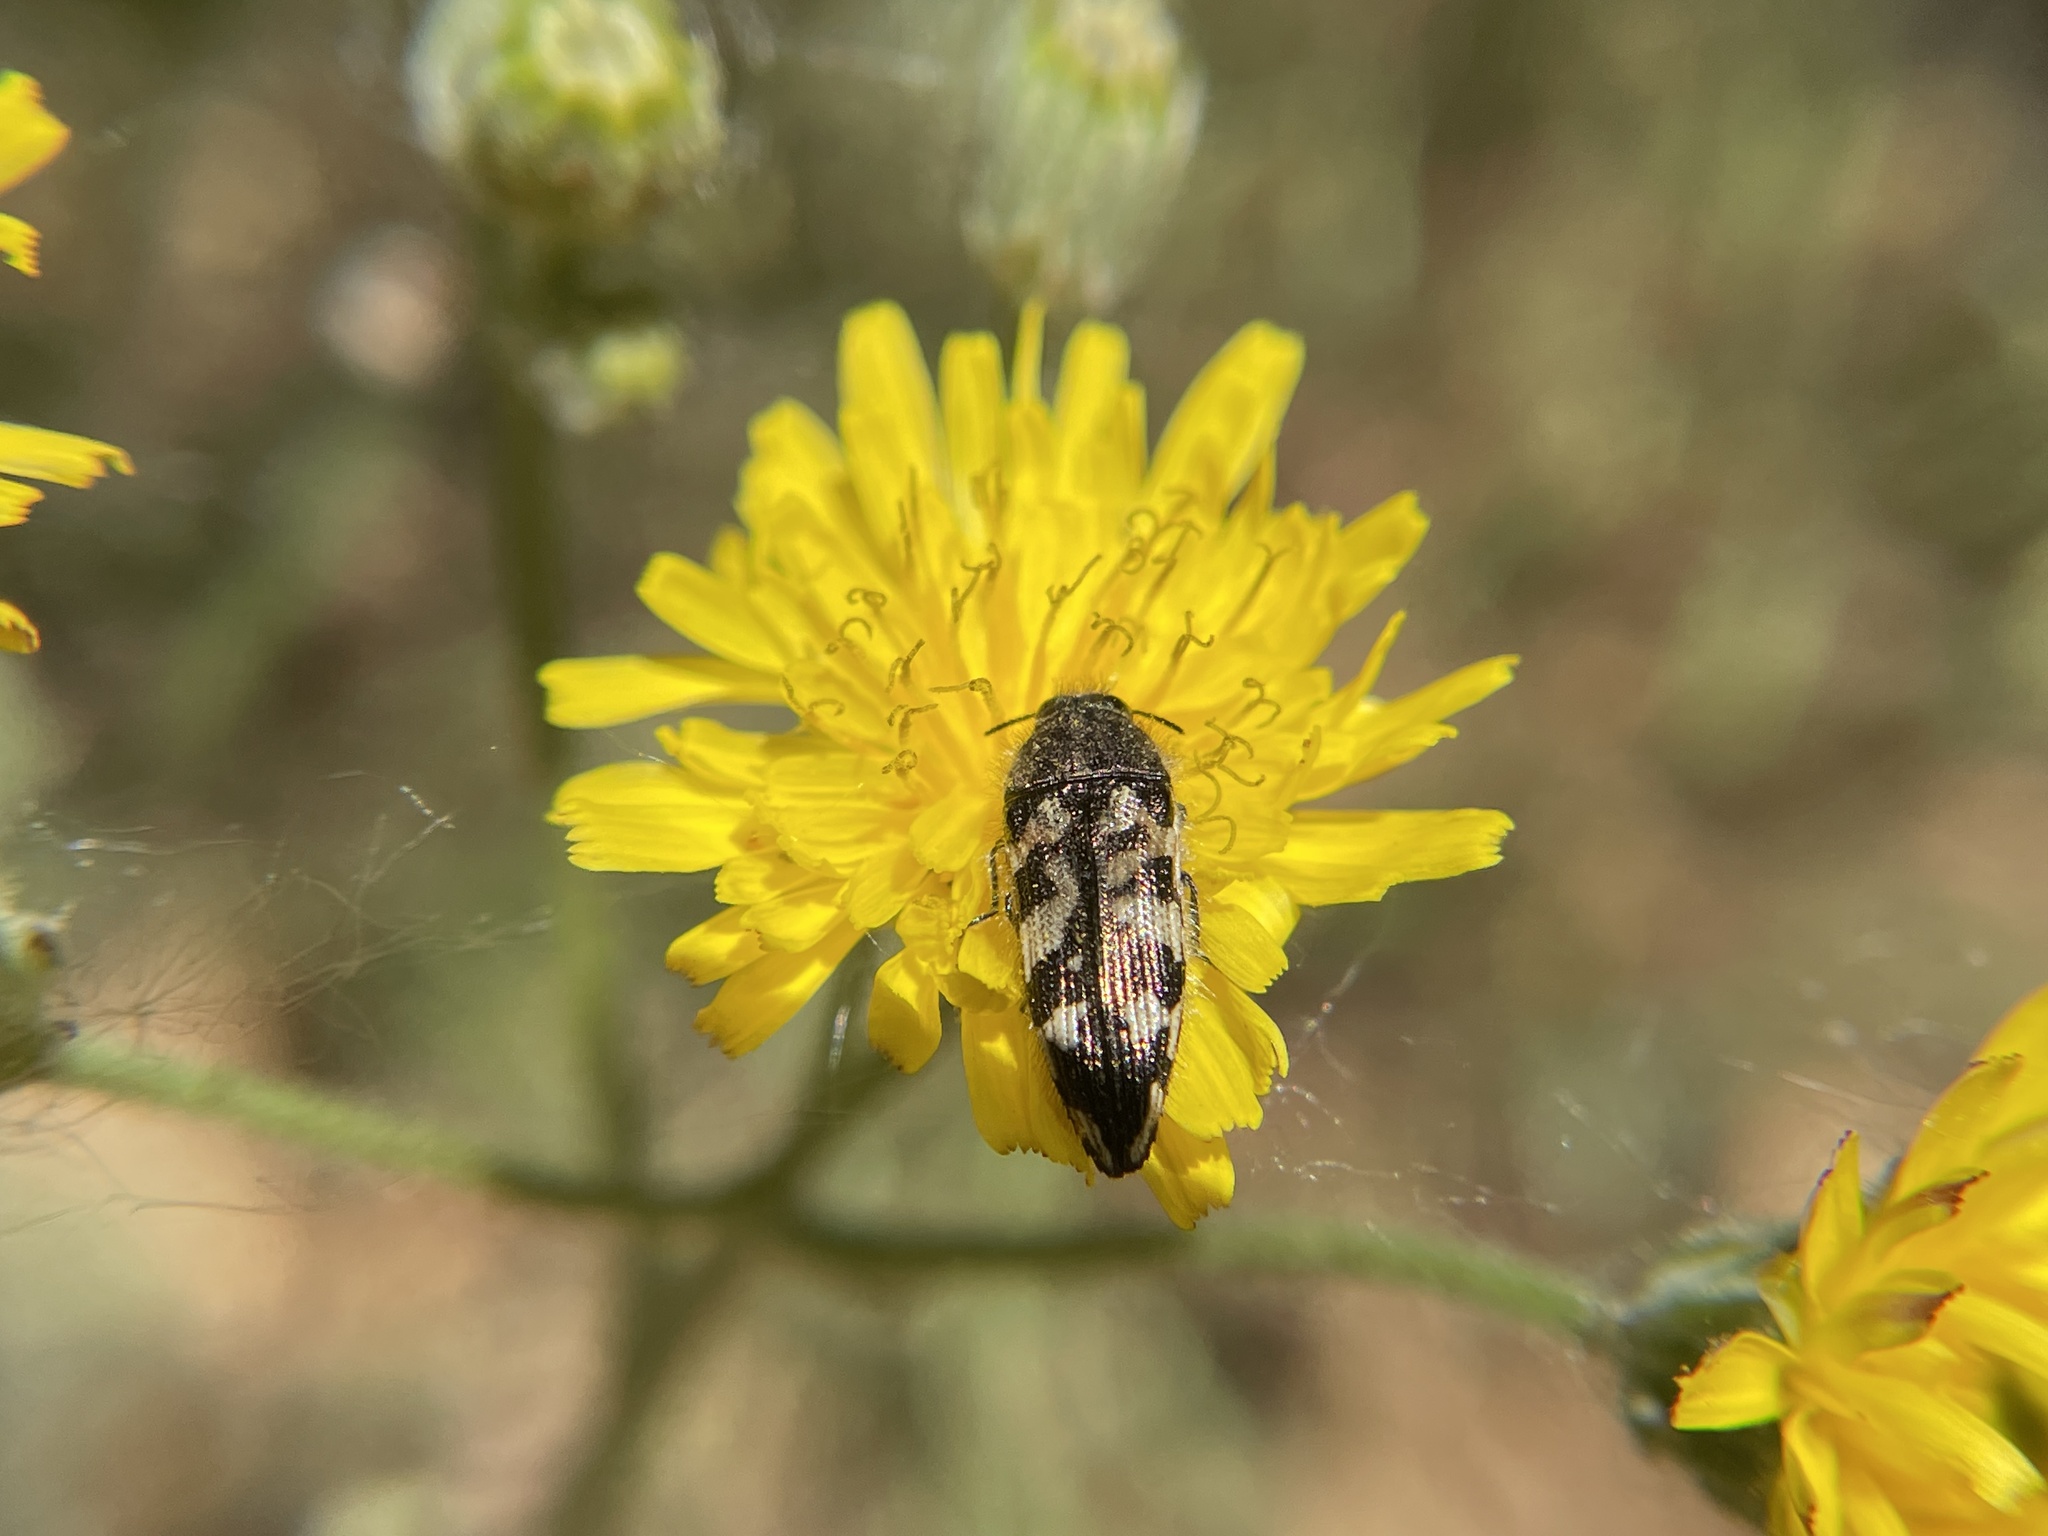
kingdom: Animalia
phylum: Arthropoda
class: Insecta
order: Coleoptera
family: Buprestidae
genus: Acmaeodera
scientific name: Acmaeodera hepburnii
